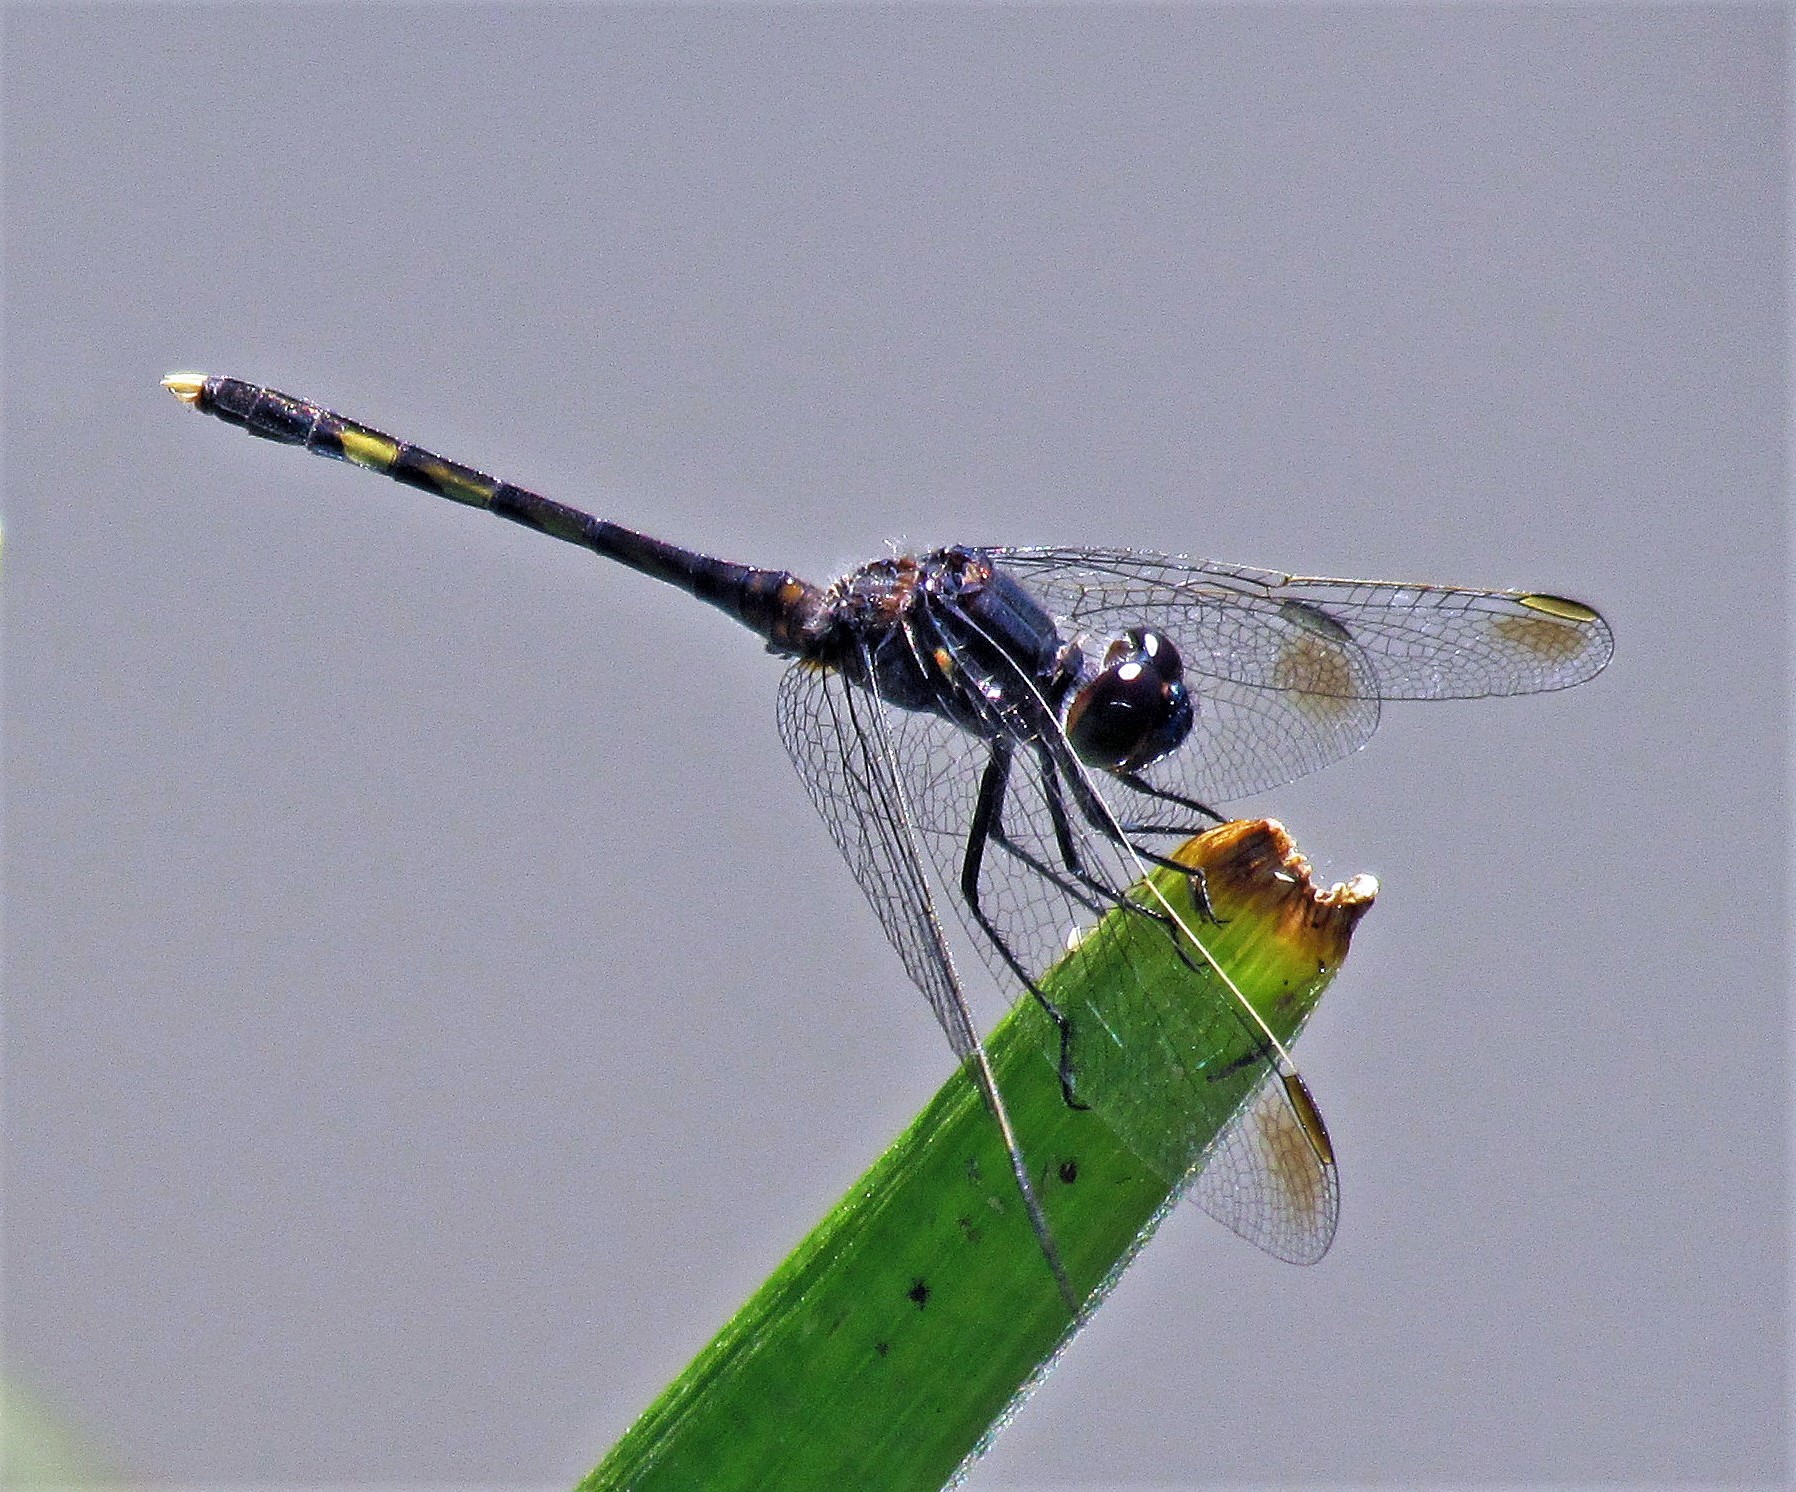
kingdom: Animalia
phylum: Arthropoda
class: Insecta
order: Odonata
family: Libellulidae
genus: Erythrodiplax
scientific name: Erythrodiplax nigricans
